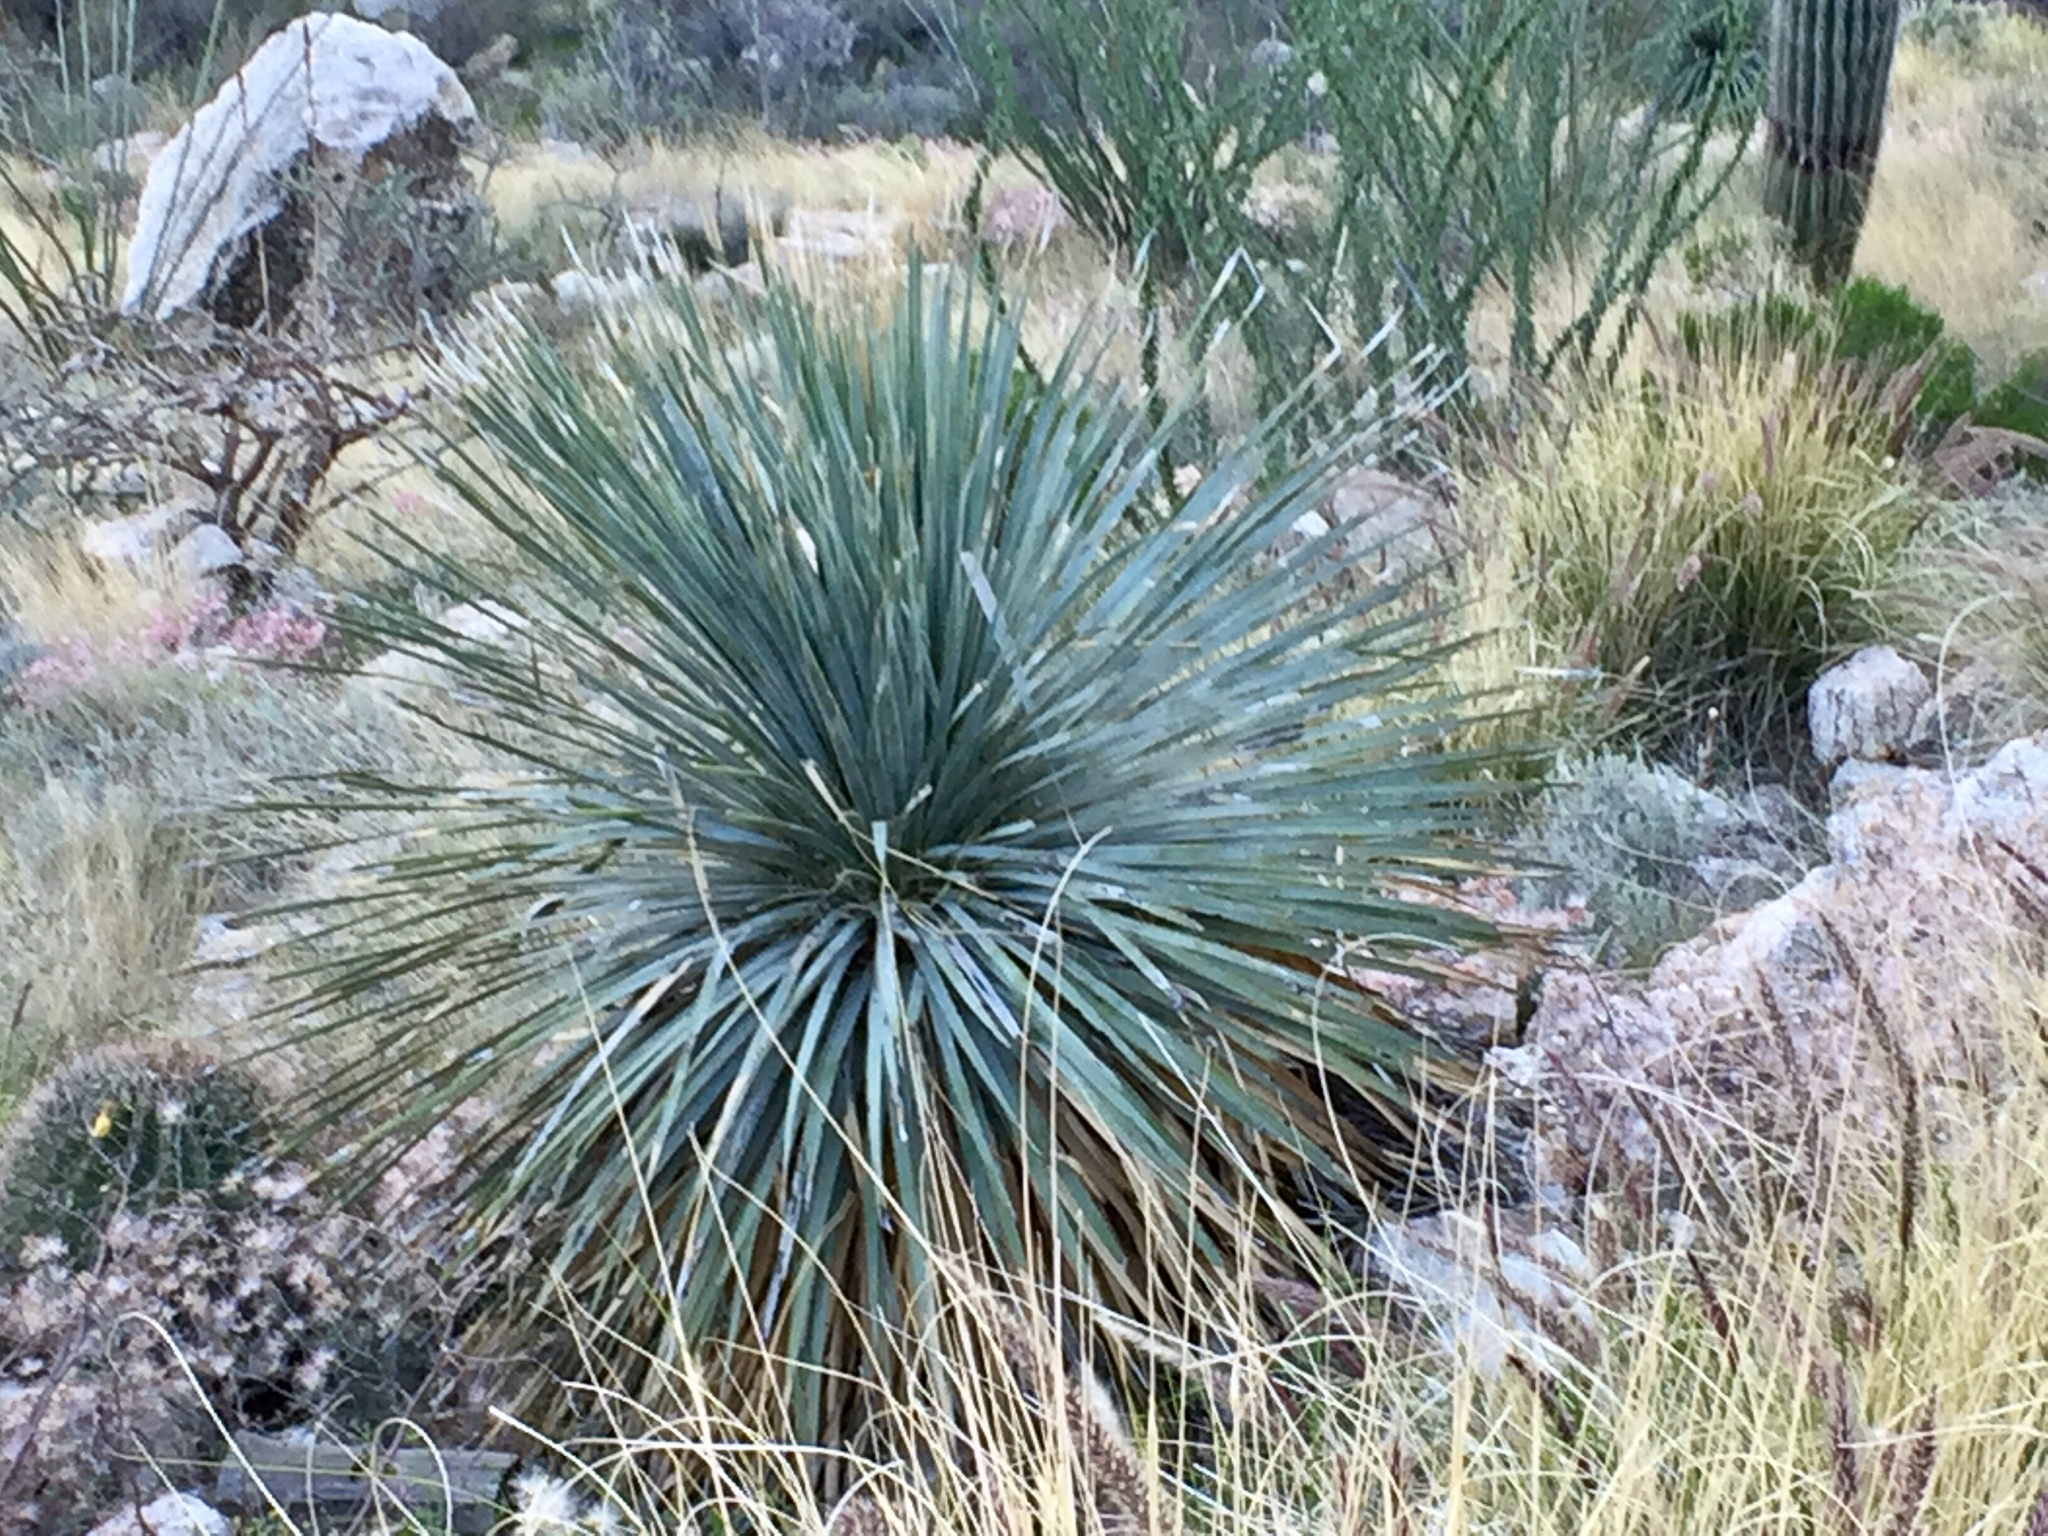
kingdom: Plantae
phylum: Tracheophyta
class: Liliopsida
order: Asparagales
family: Asparagaceae
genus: Dasylirion
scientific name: Dasylirion wheeleri
